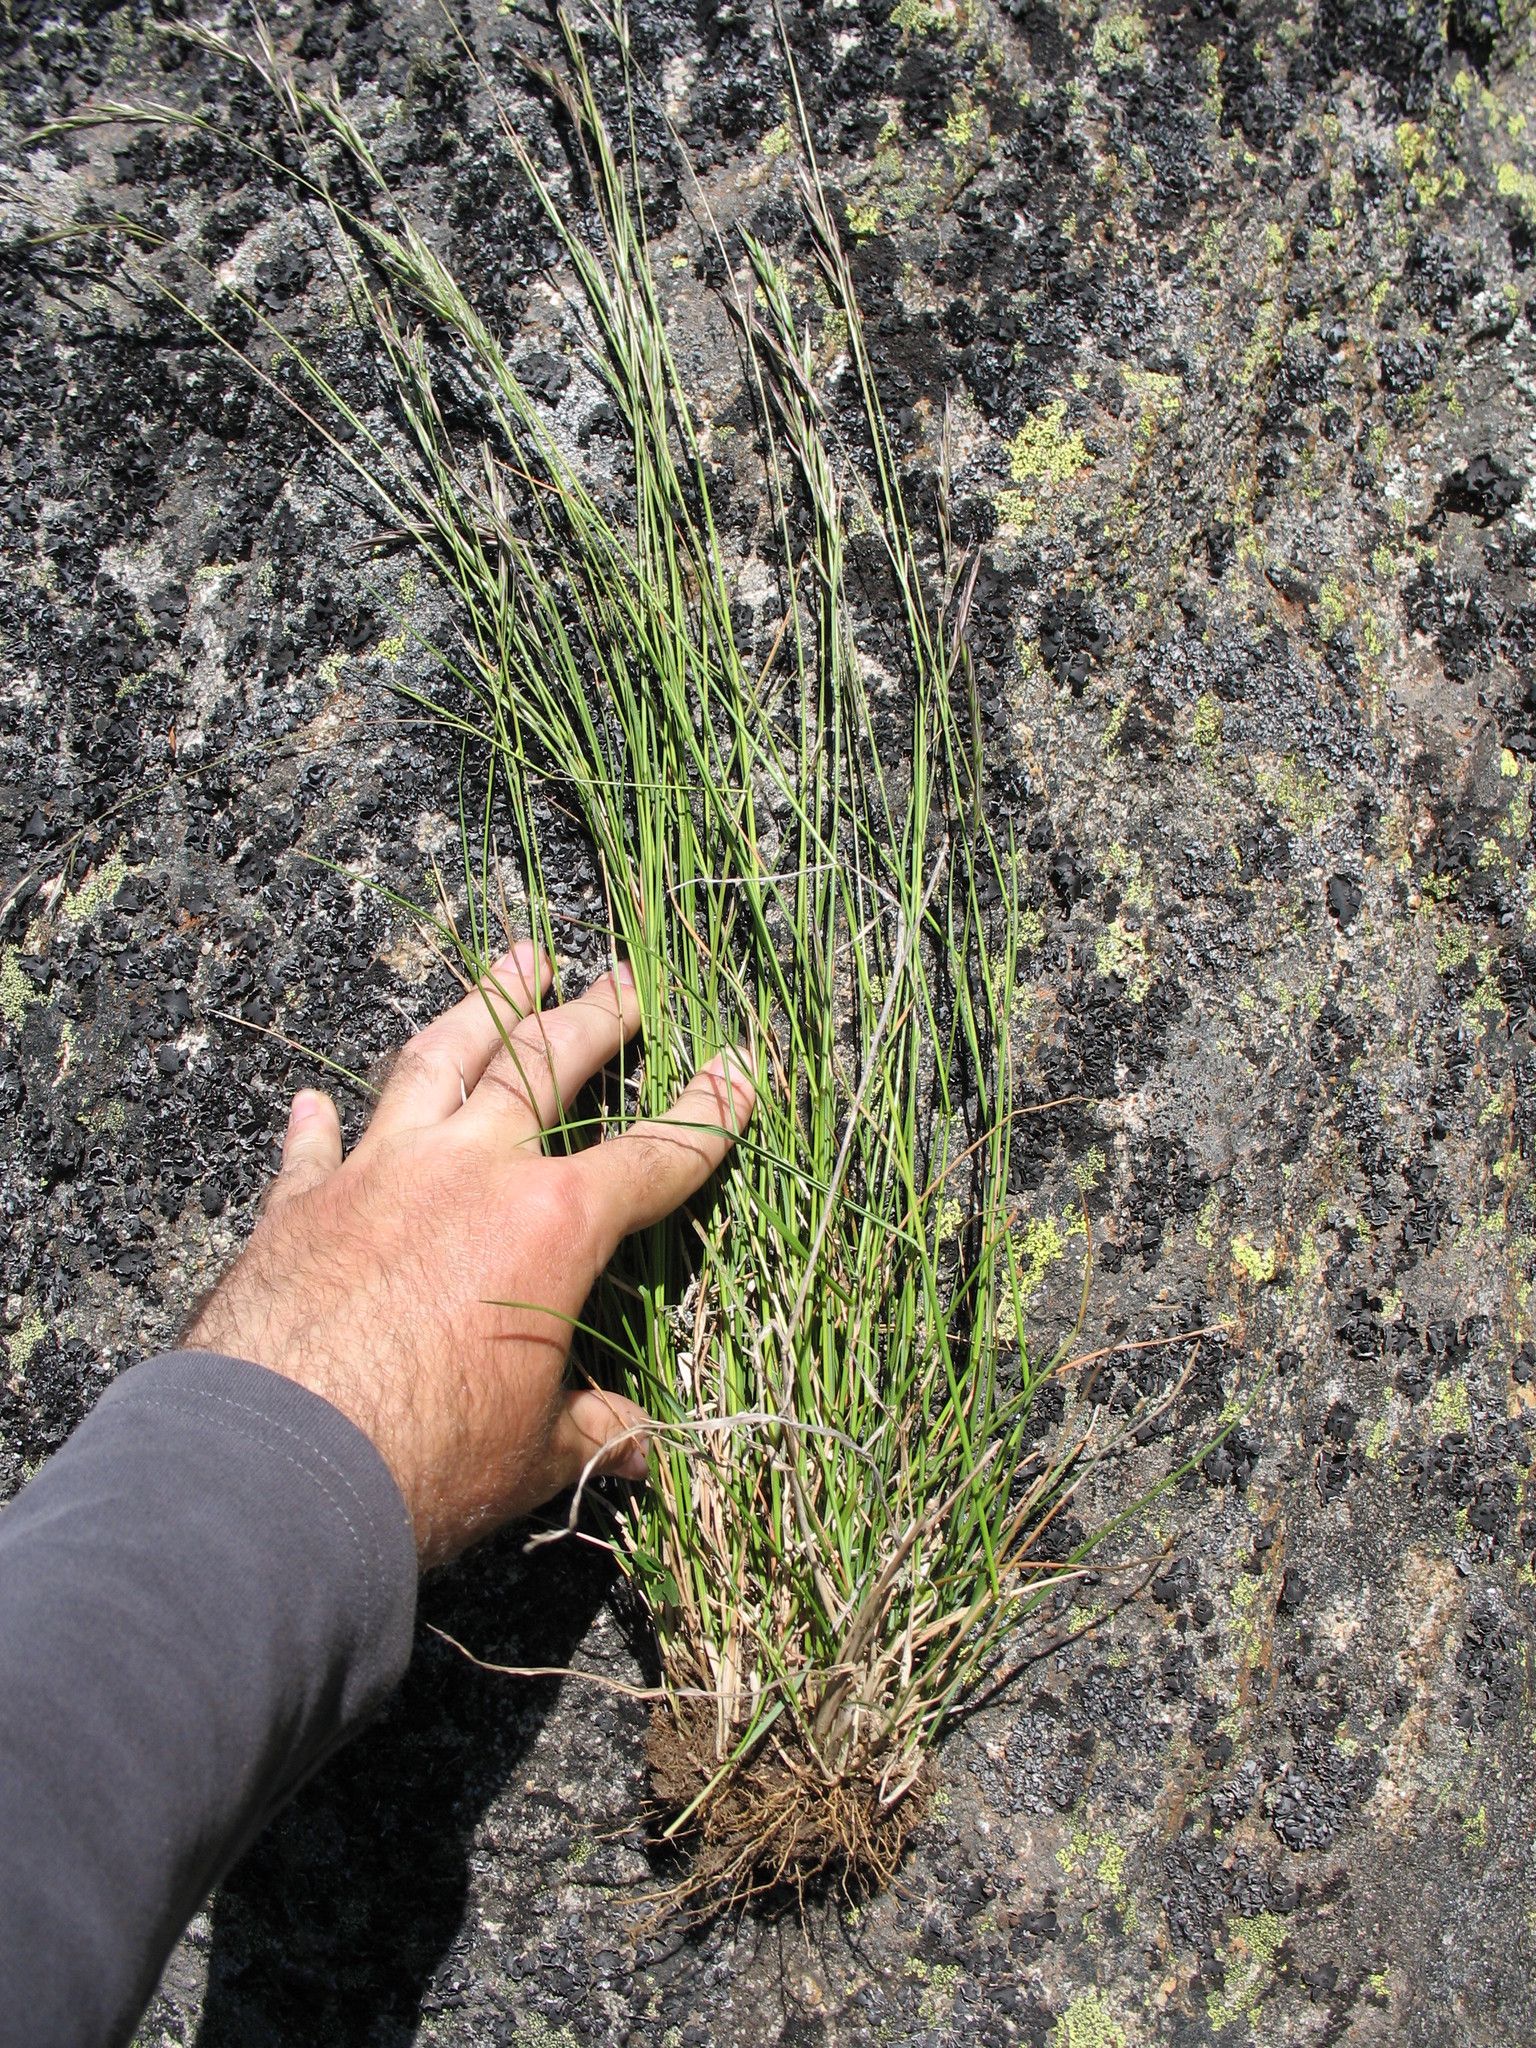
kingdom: Plantae
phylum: Tracheophyta
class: Liliopsida
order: Poales
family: Poaceae
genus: Rytidosperma
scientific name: Rytidosperma penicillatum
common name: Hairy wallaby grass
